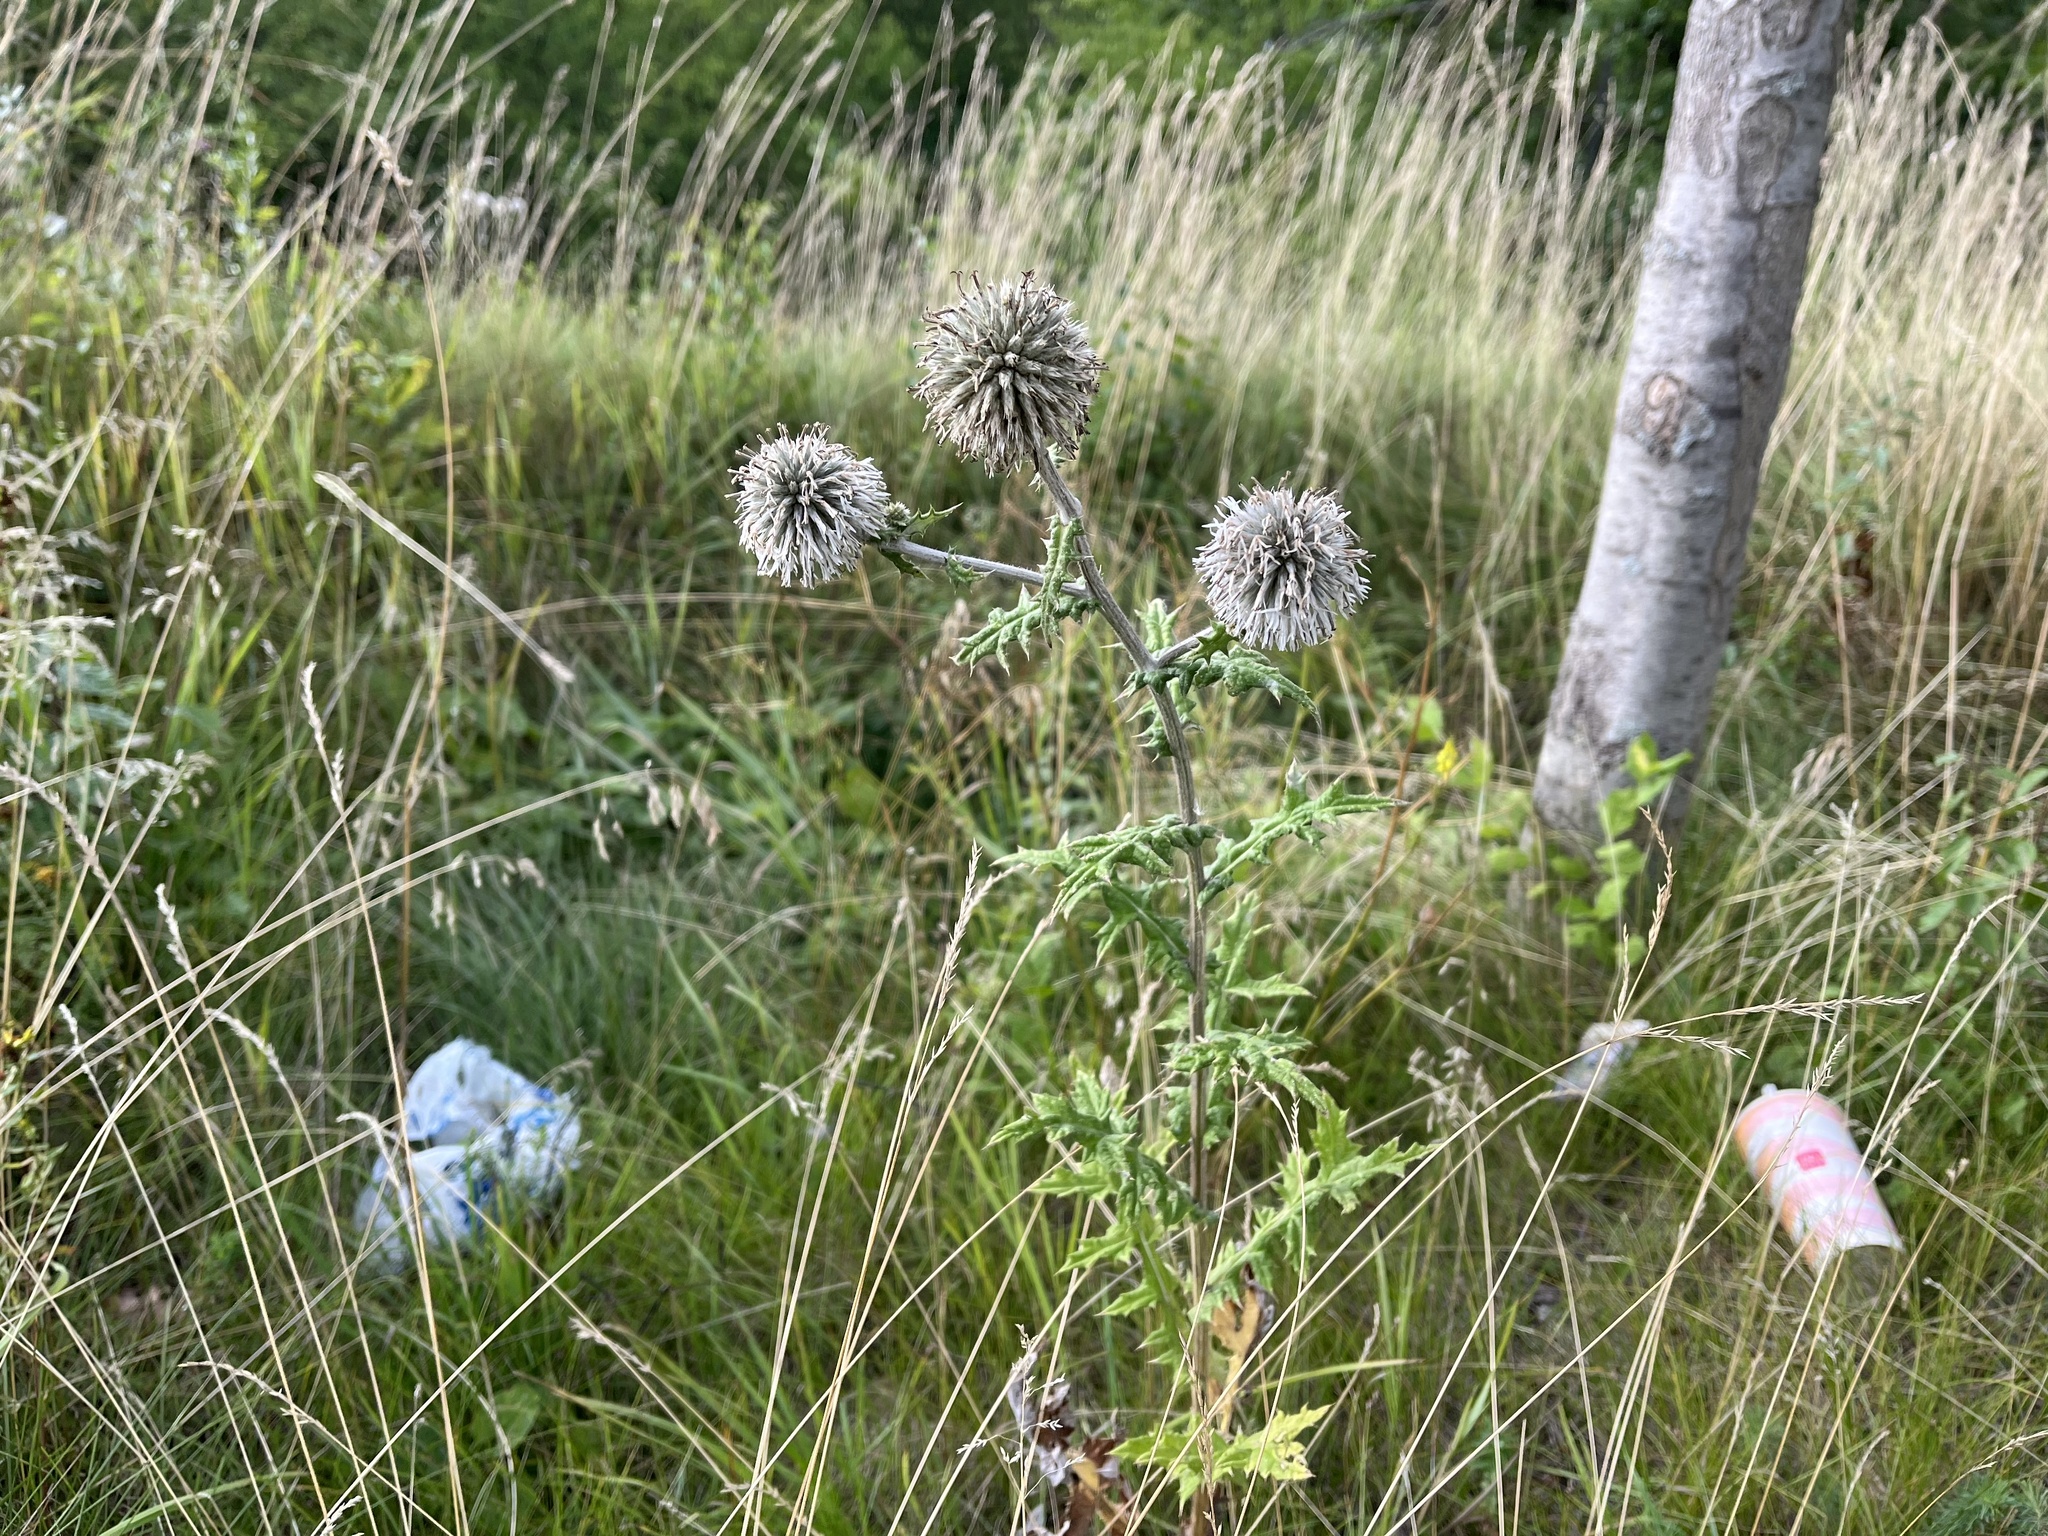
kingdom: Plantae
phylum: Tracheophyta
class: Magnoliopsida
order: Asterales
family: Asteraceae
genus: Echinops
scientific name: Echinops sphaerocephalus
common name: Glandular globe-thistle
